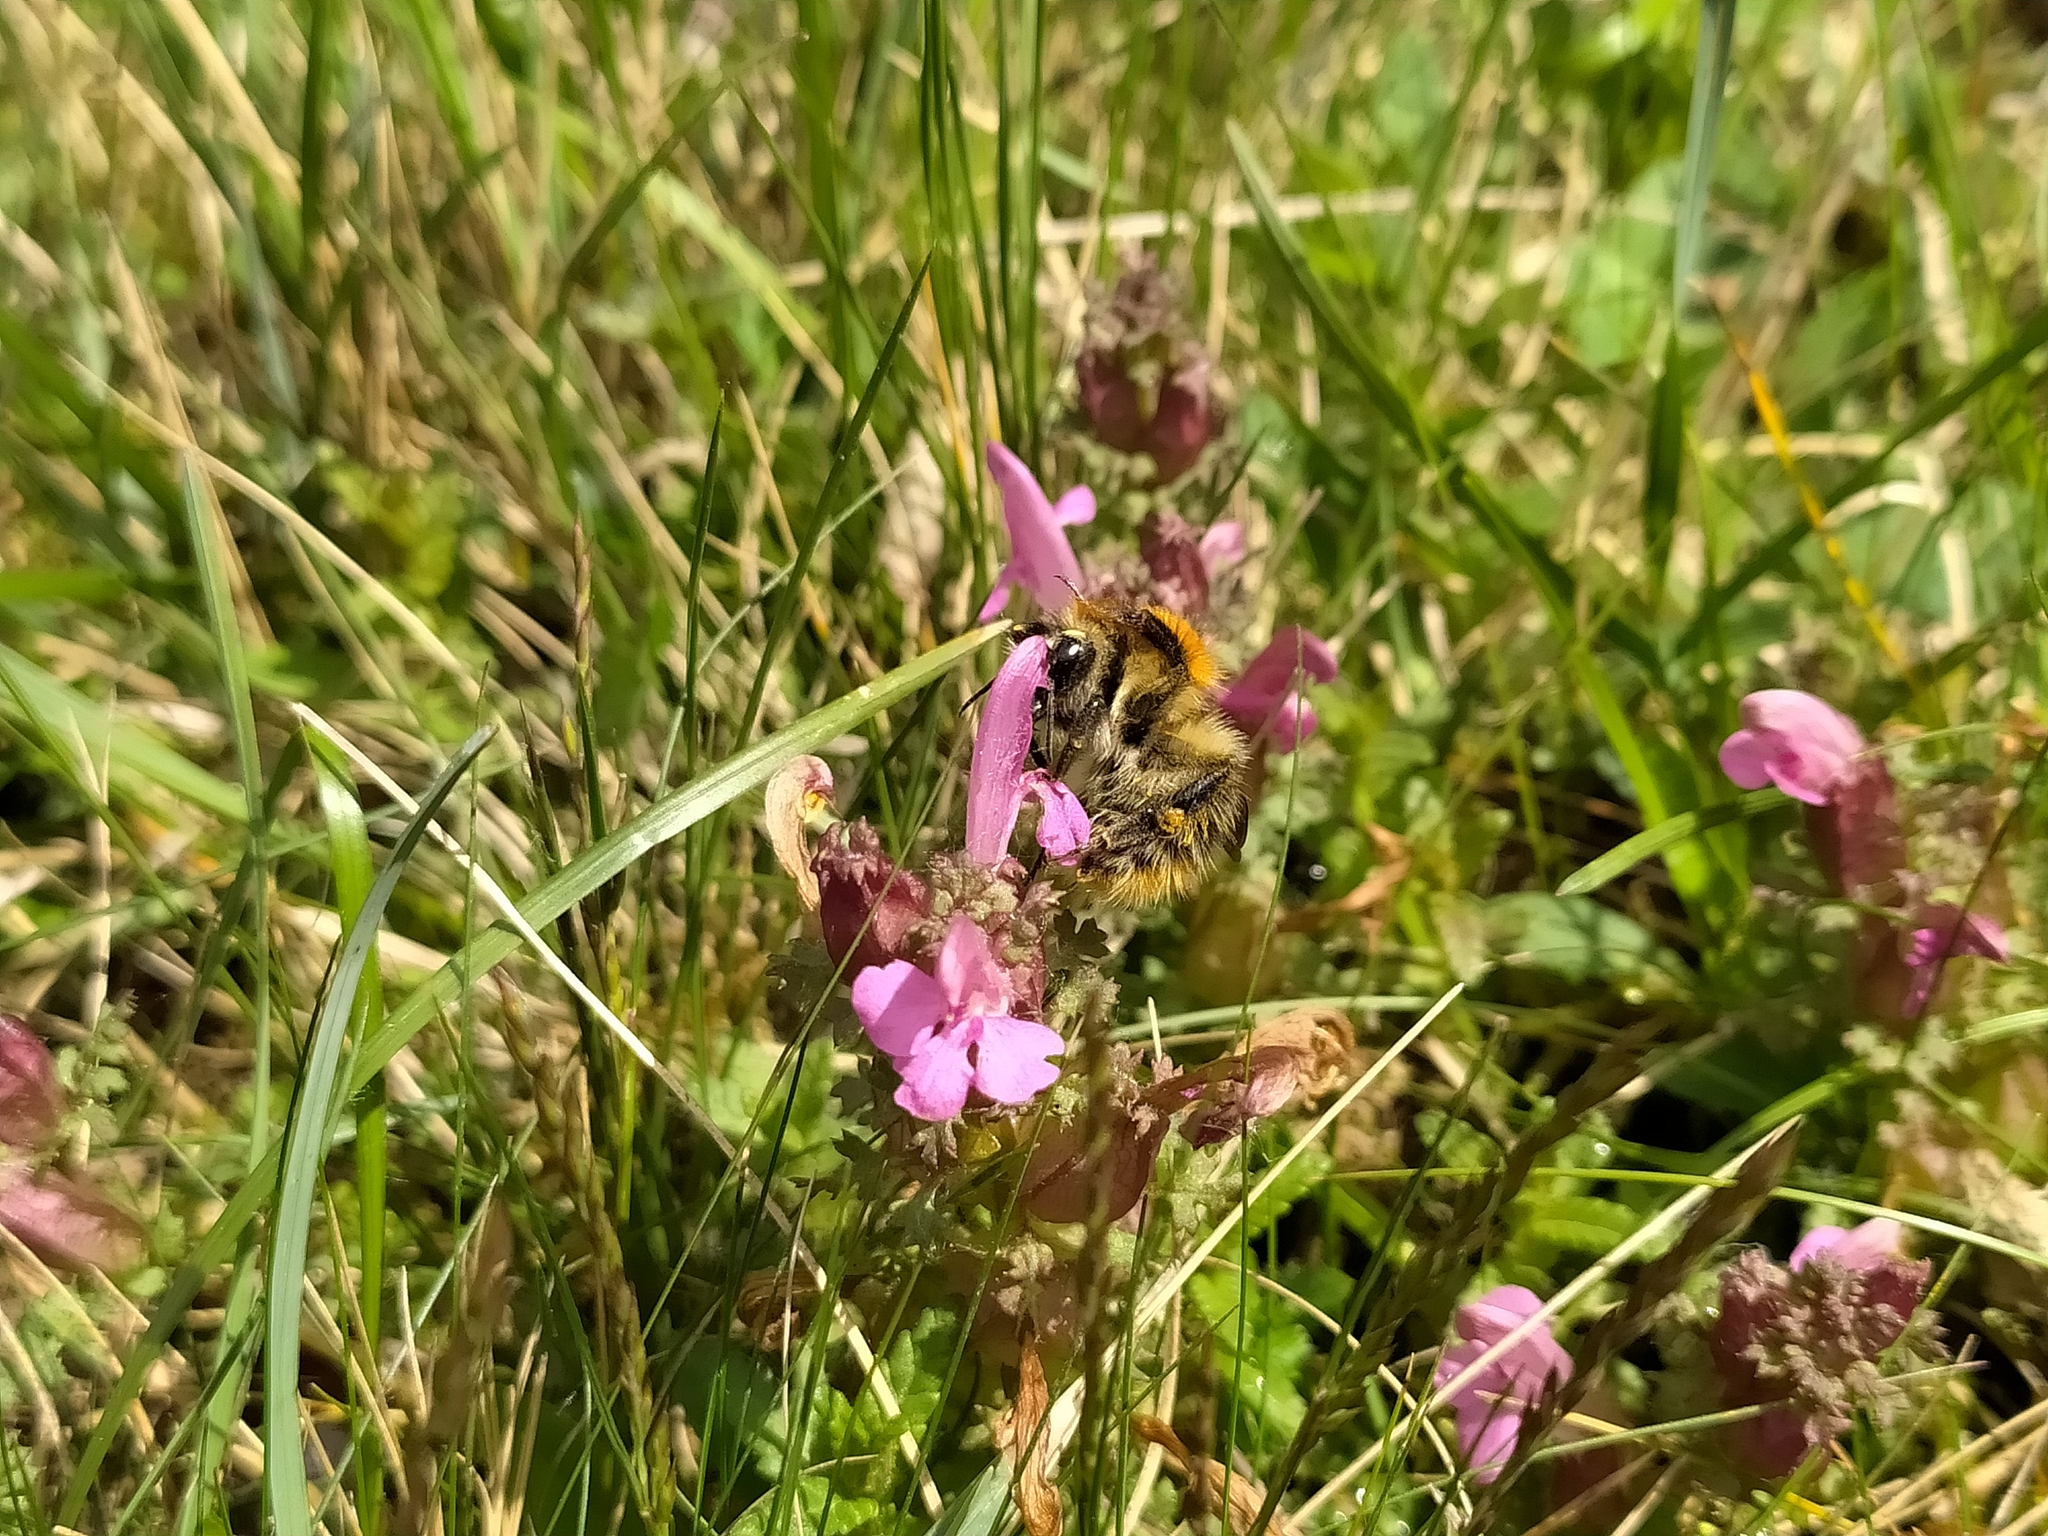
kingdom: Animalia
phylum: Arthropoda
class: Insecta
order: Hymenoptera
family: Apidae
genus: Bombus
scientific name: Bombus pascuorum
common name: Common carder bee
